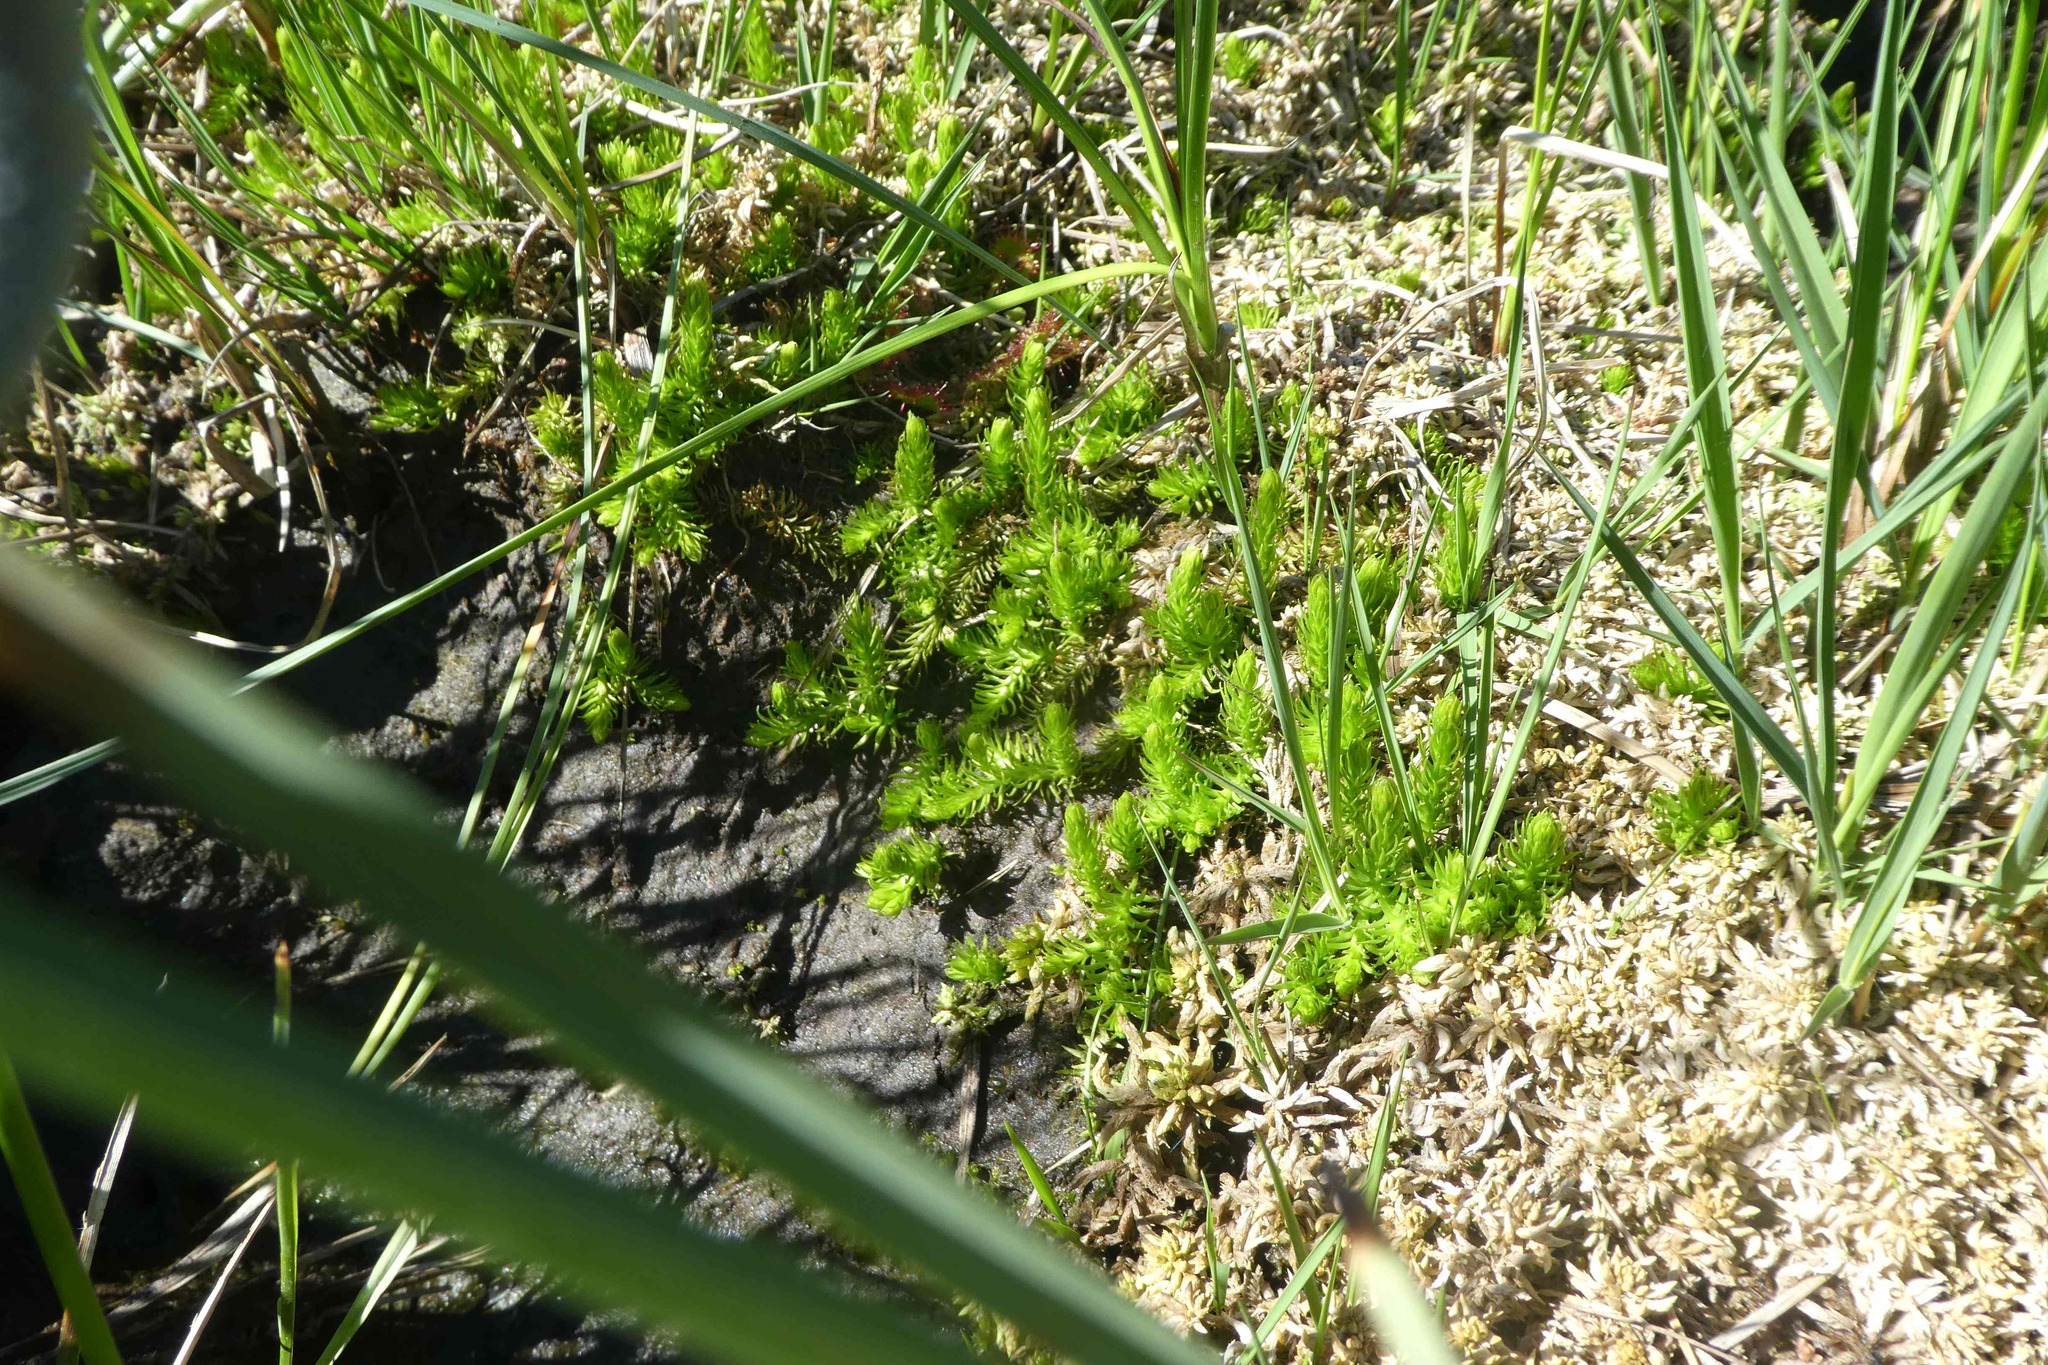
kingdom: Plantae
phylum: Tracheophyta
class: Lycopodiopsida
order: Lycopodiales
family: Lycopodiaceae
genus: Lycopodiella
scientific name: Lycopodiella inundata
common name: Marsh clubmoss
